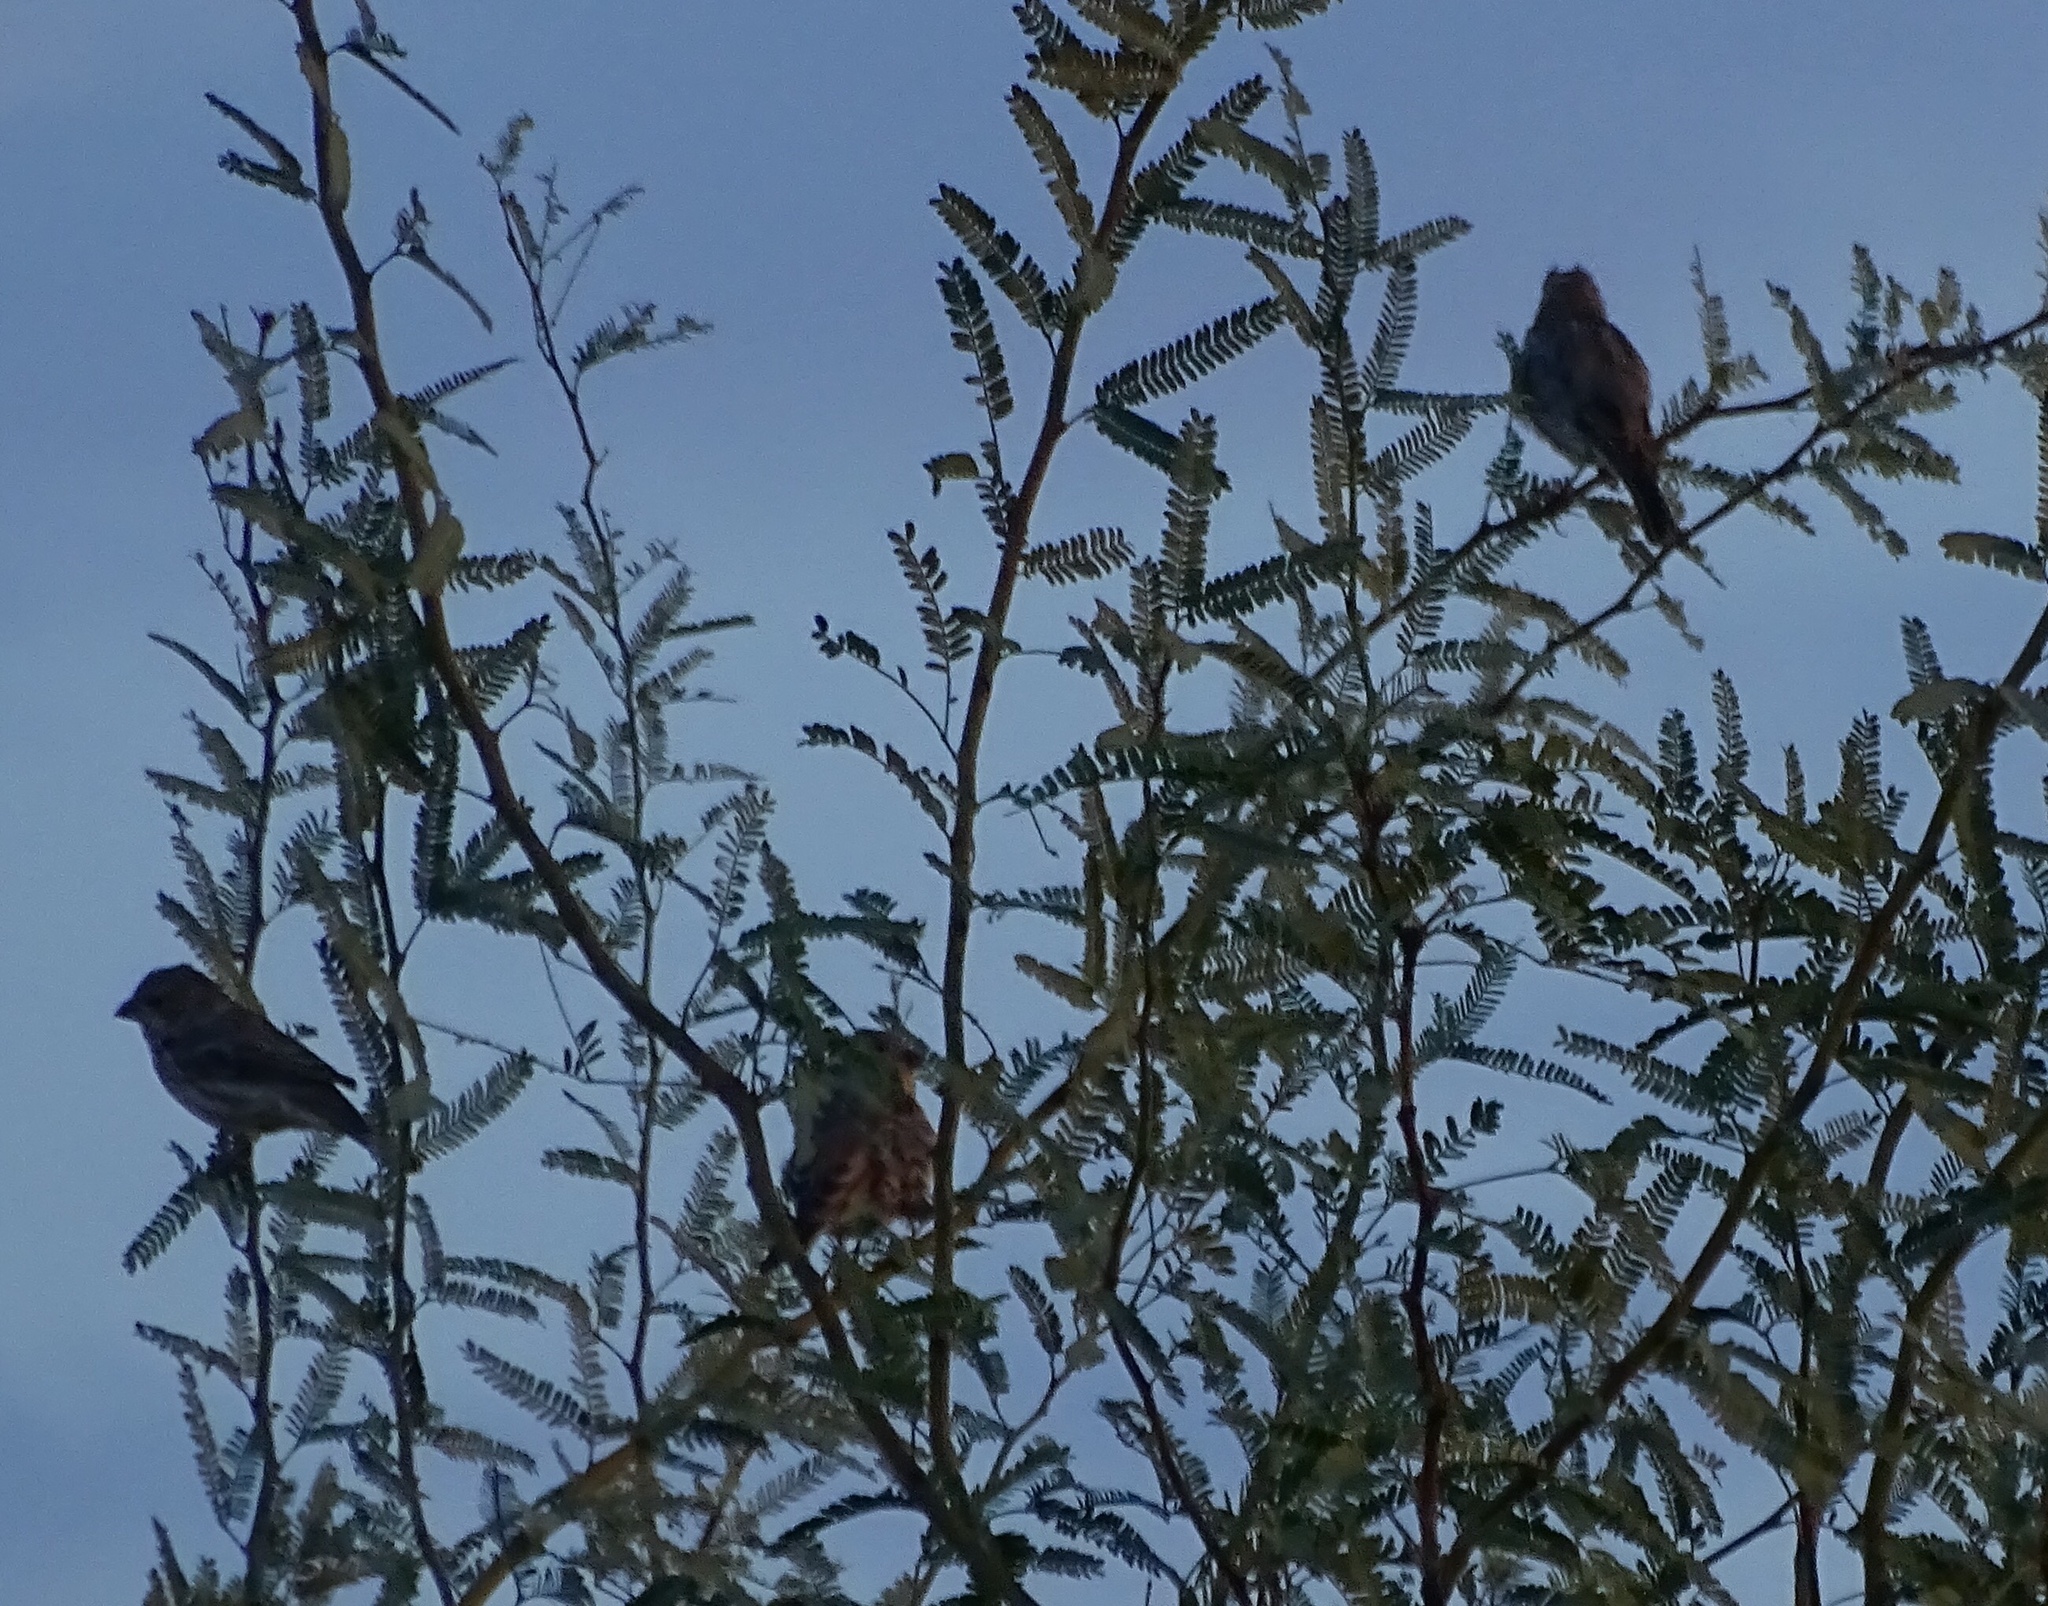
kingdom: Animalia
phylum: Chordata
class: Aves
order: Passeriformes
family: Fringillidae
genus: Haemorhous
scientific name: Haemorhous mexicanus
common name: House finch
